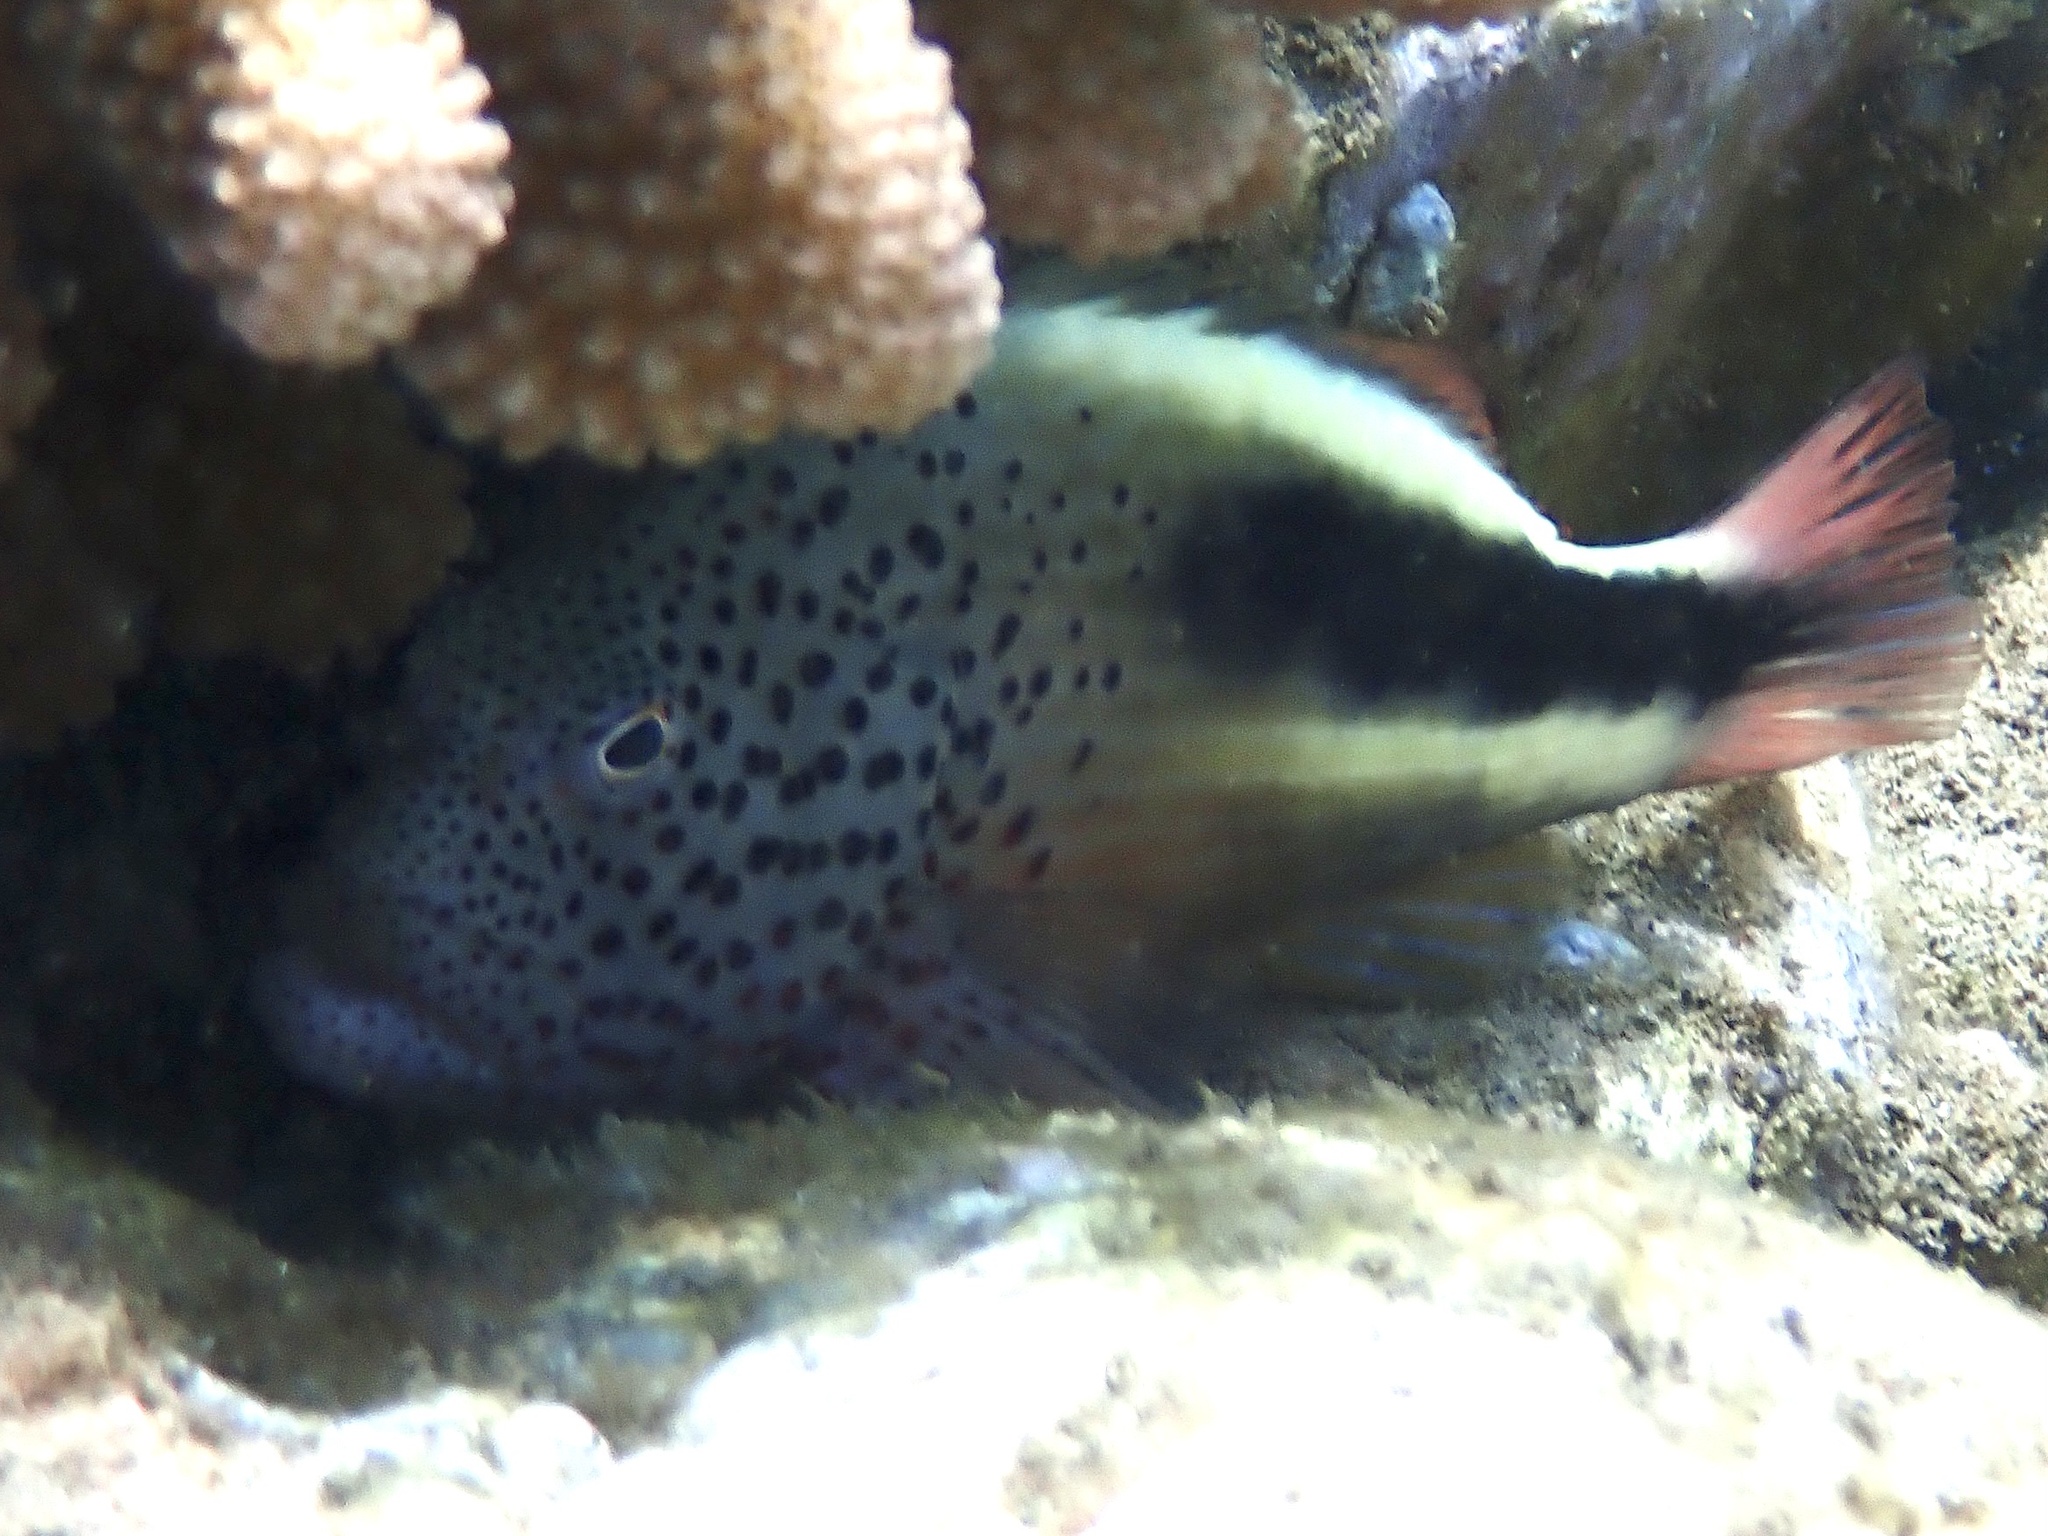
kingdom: Animalia
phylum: Chordata
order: Perciformes
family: Cirrhitidae
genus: Paracirrhites
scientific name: Paracirrhites forsteri
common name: Freckled hawkfish
